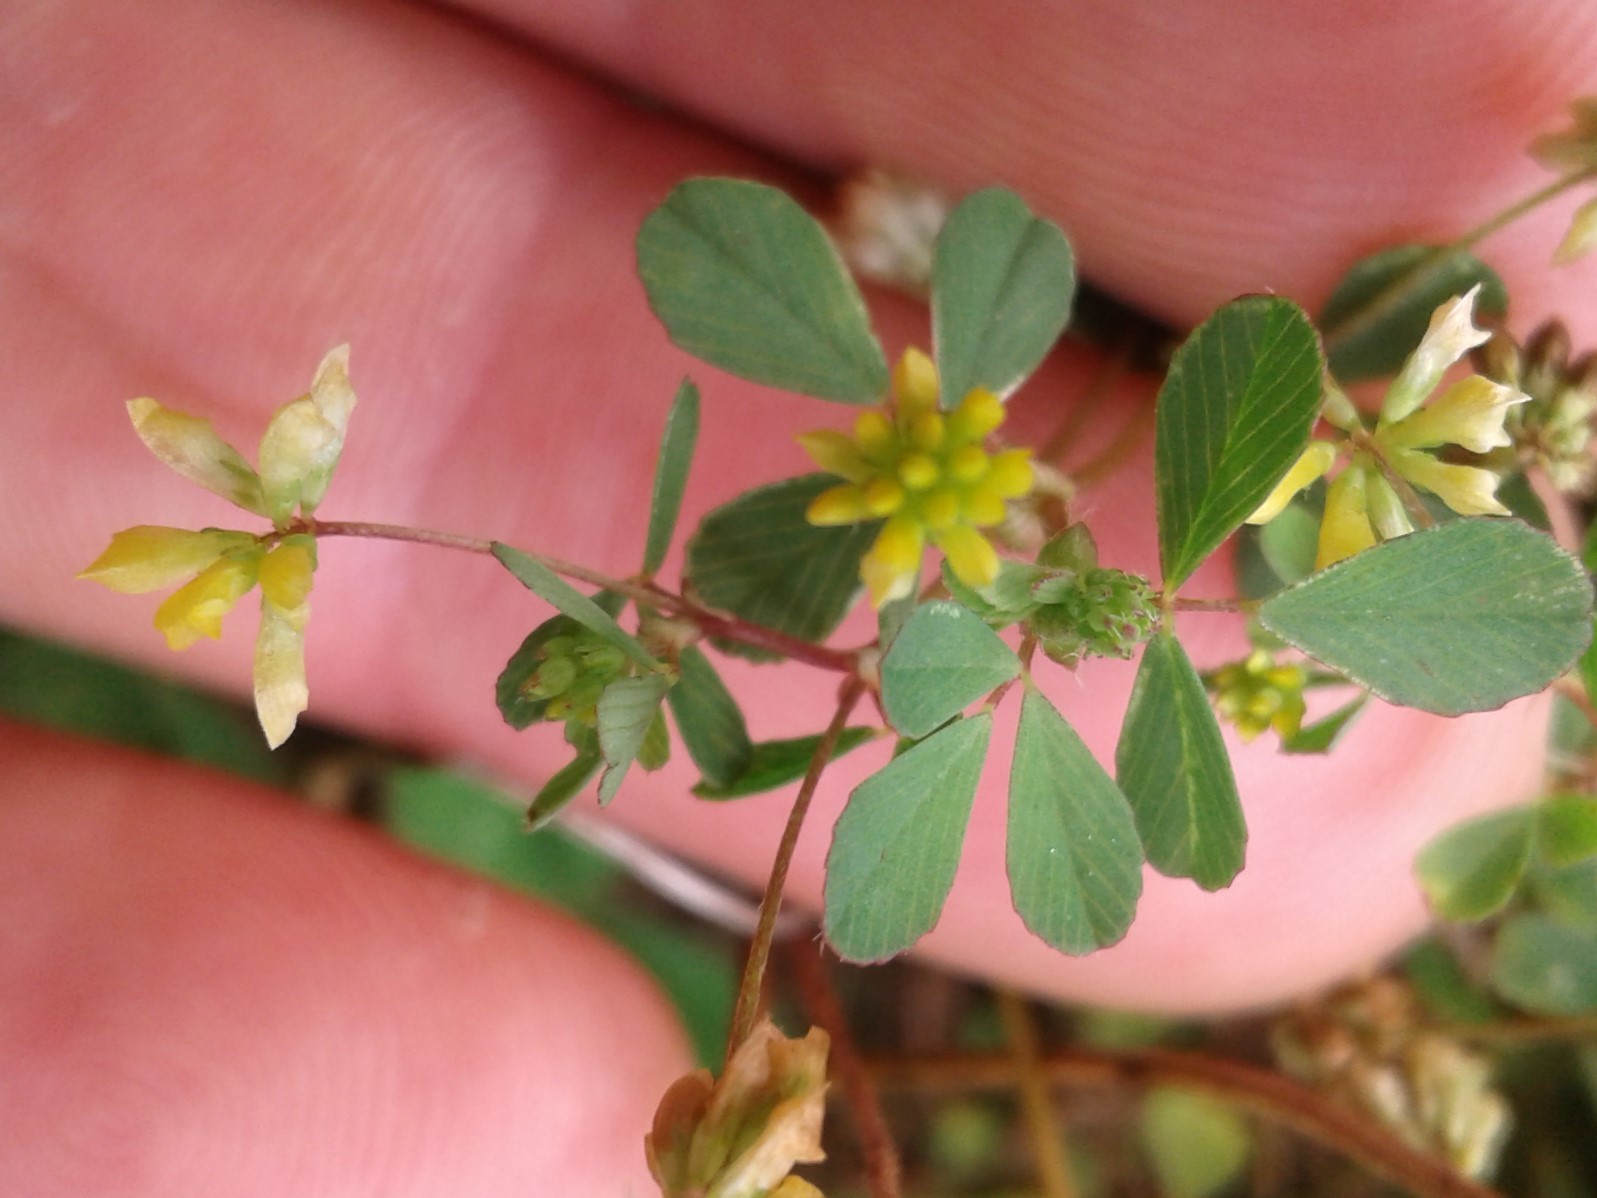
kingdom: Plantae
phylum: Tracheophyta
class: Magnoliopsida
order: Fabales
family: Fabaceae
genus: Trifolium
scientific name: Trifolium dubium
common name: Suckling clover
